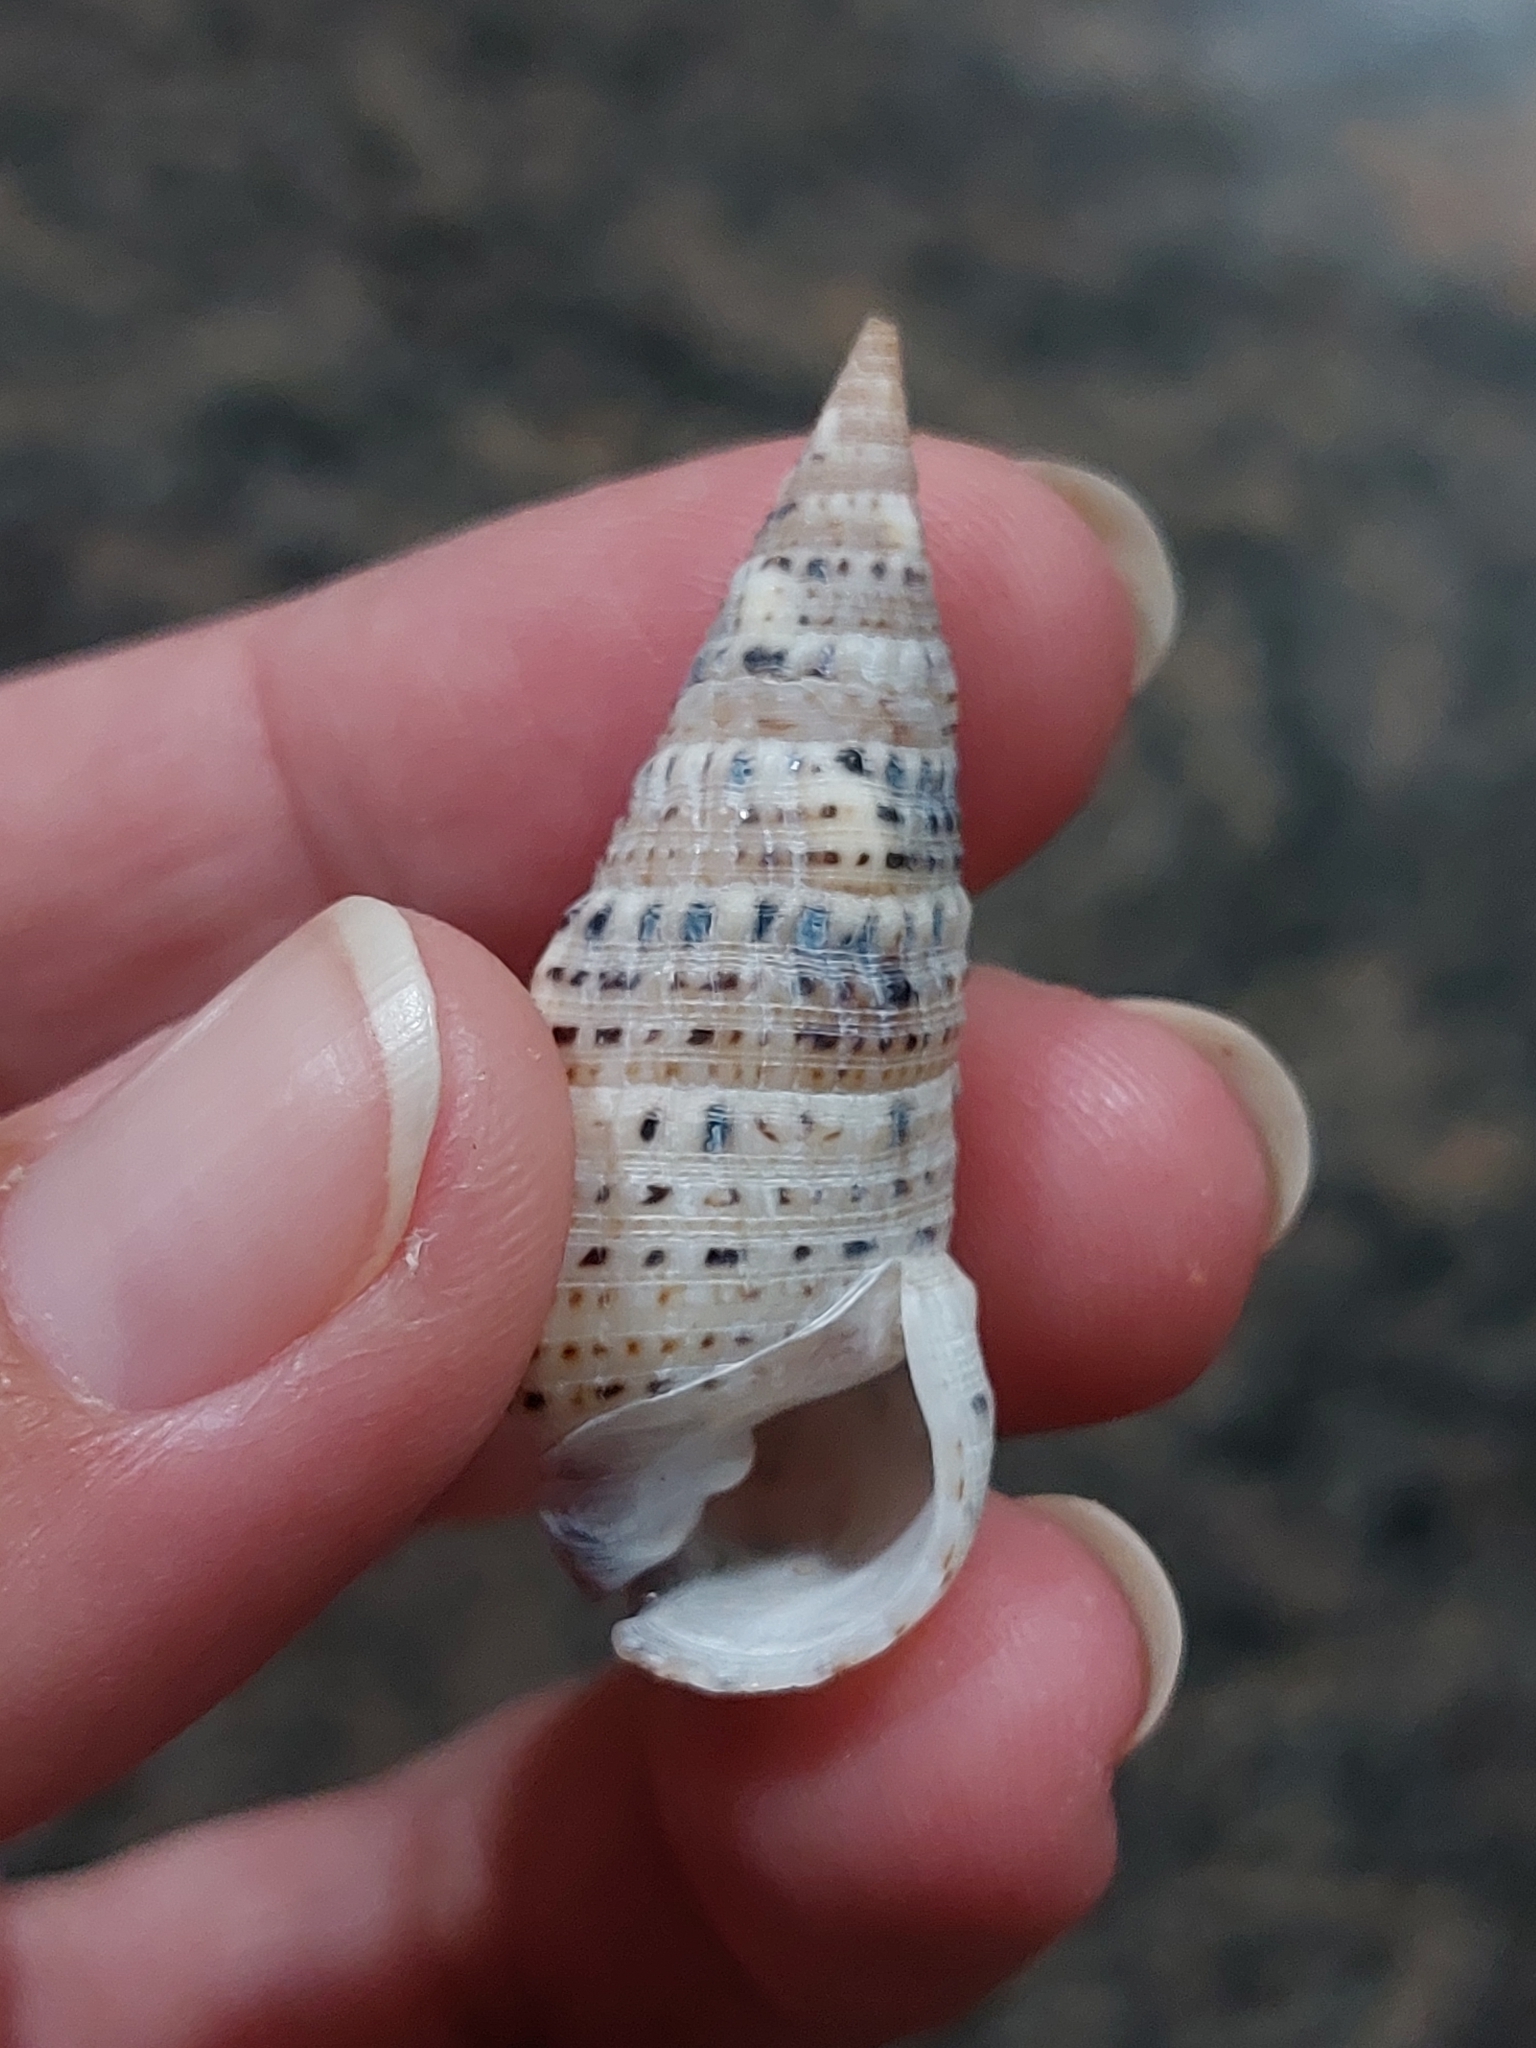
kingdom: Animalia
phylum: Mollusca
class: Gastropoda
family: Cerithiidae
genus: Rhinoclavis
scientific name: Rhinoclavis sinensis
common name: Knobbled horn shell
